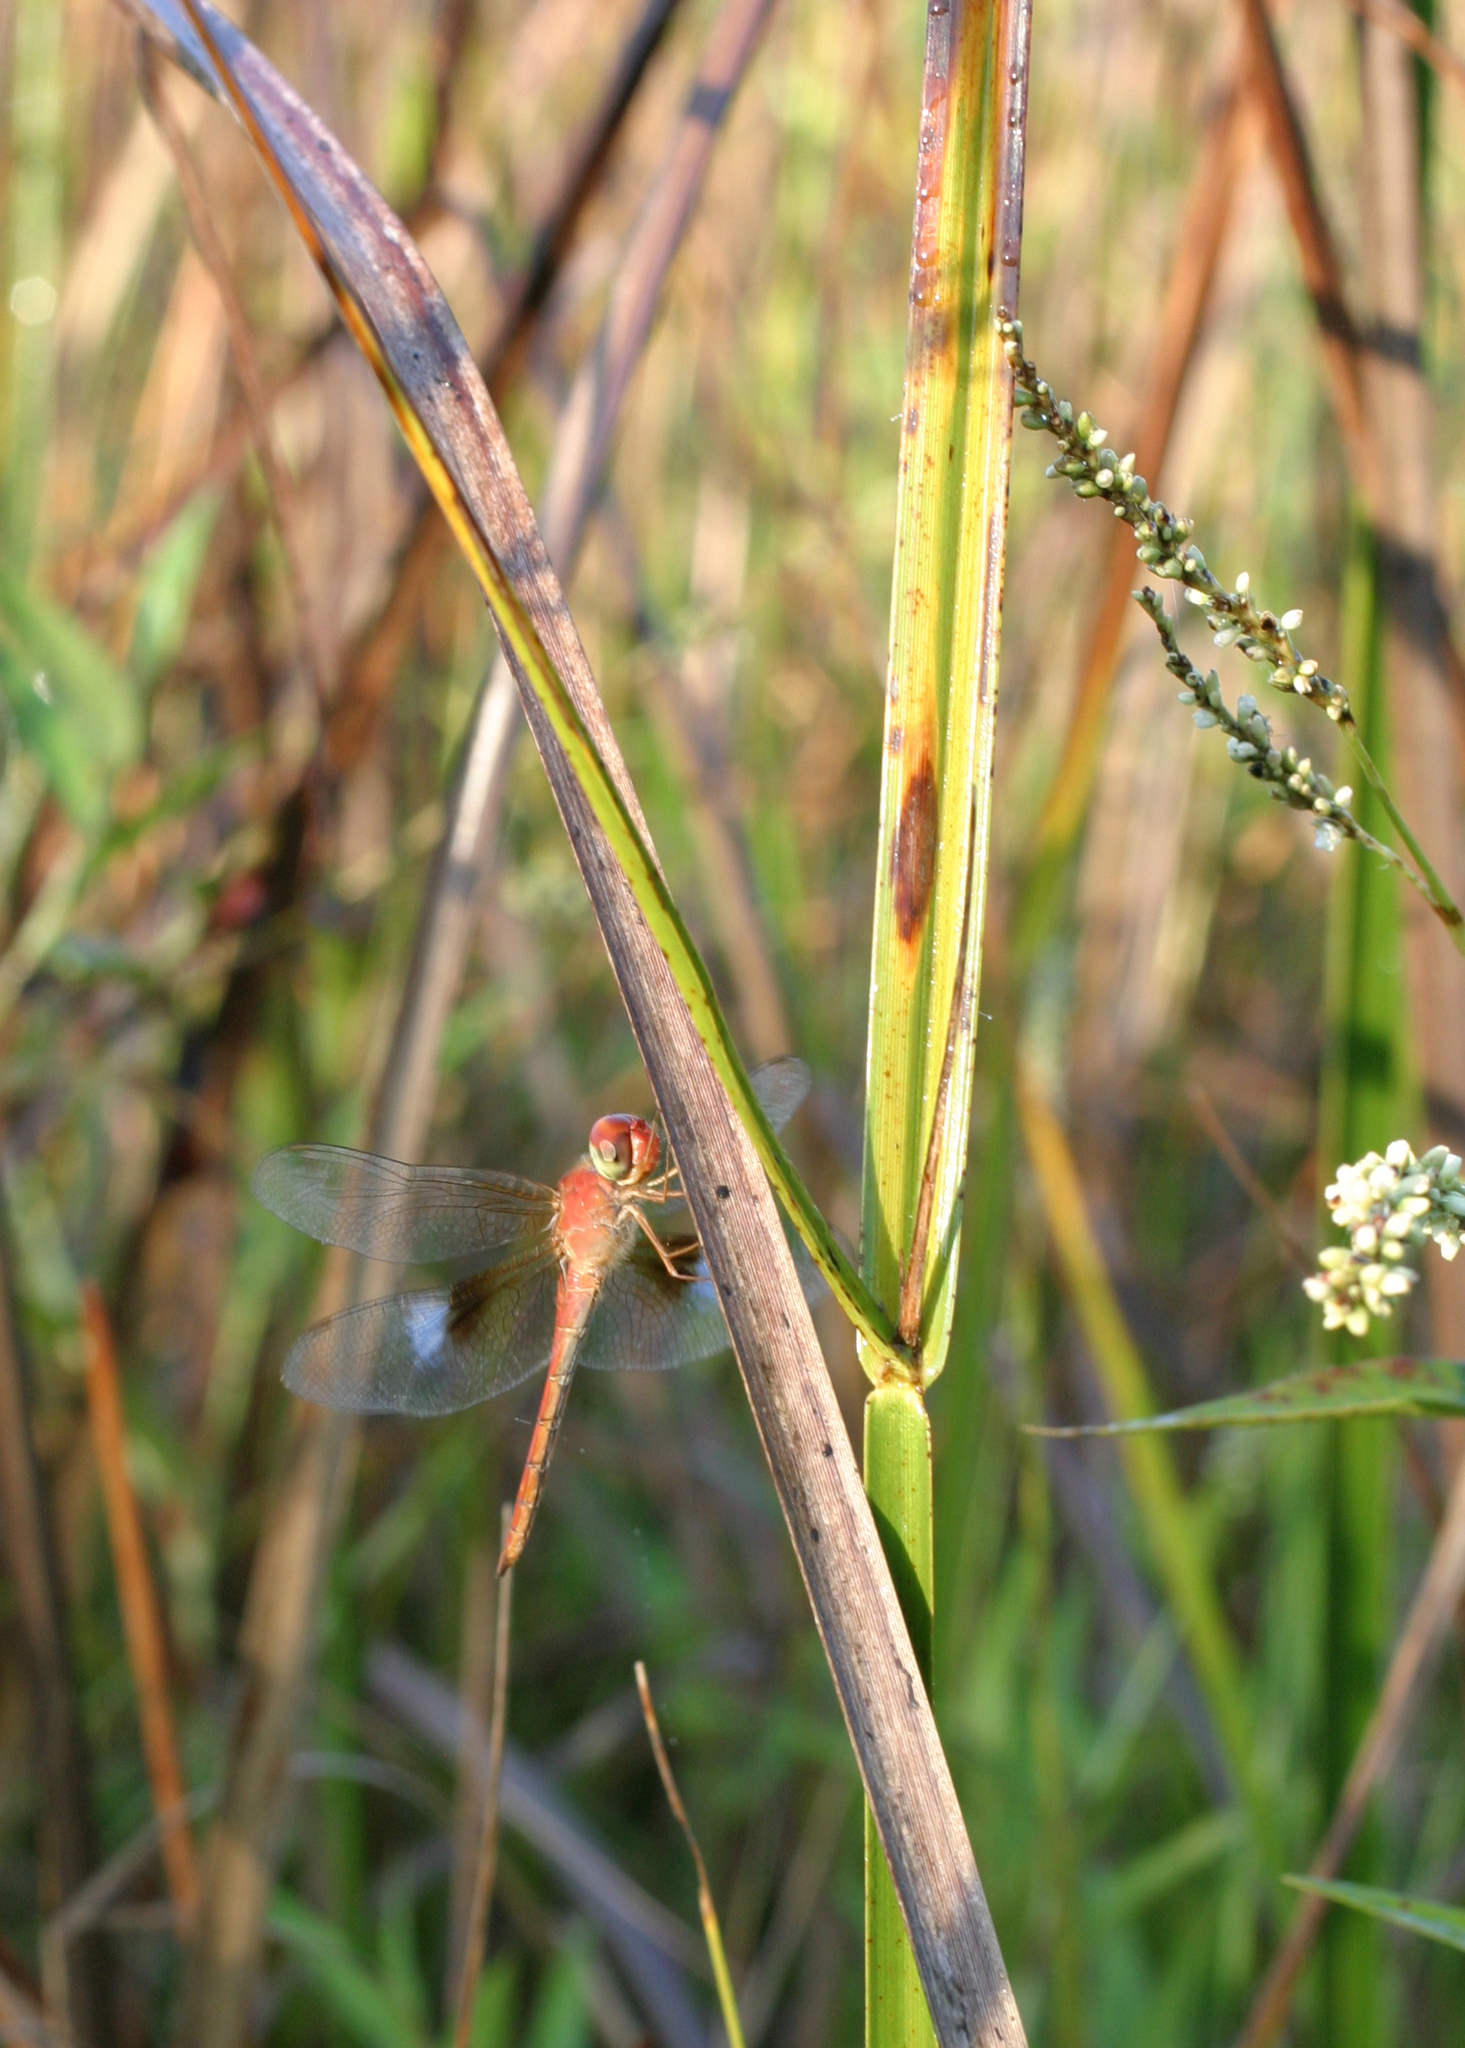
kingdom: Animalia
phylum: Arthropoda
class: Insecta
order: Odonata
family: Libellulidae
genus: Tholymis
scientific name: Tholymis tillarga
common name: Coral-tailed cloud wing
